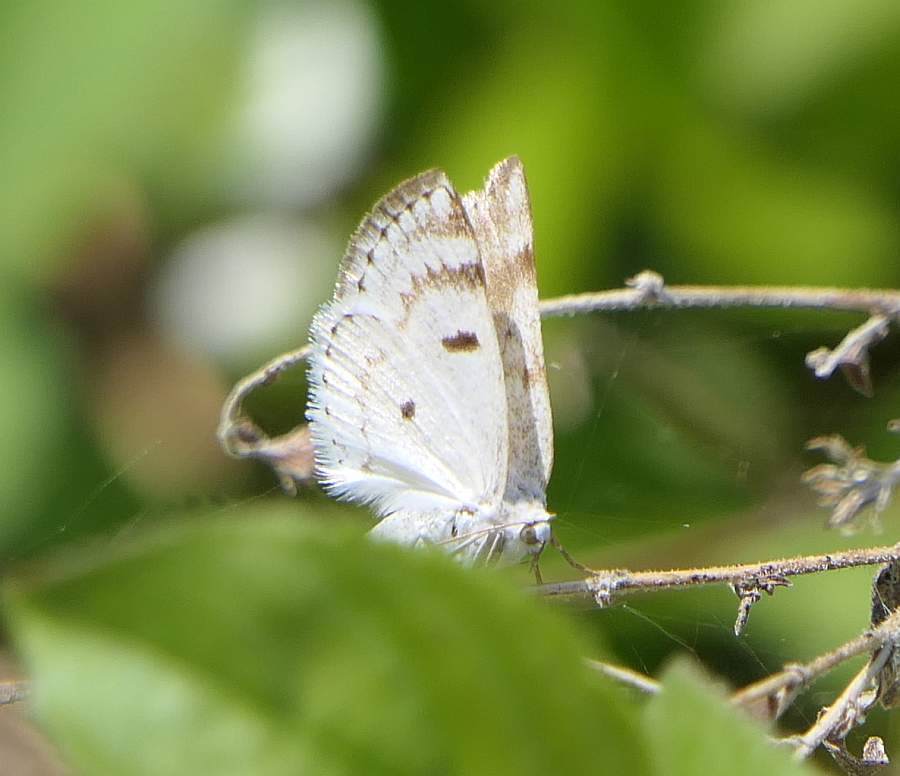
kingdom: Animalia
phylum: Arthropoda
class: Insecta
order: Lepidoptera
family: Geometridae
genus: Lomographa
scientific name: Lomographa semiclarata
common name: Bluish spring moth
